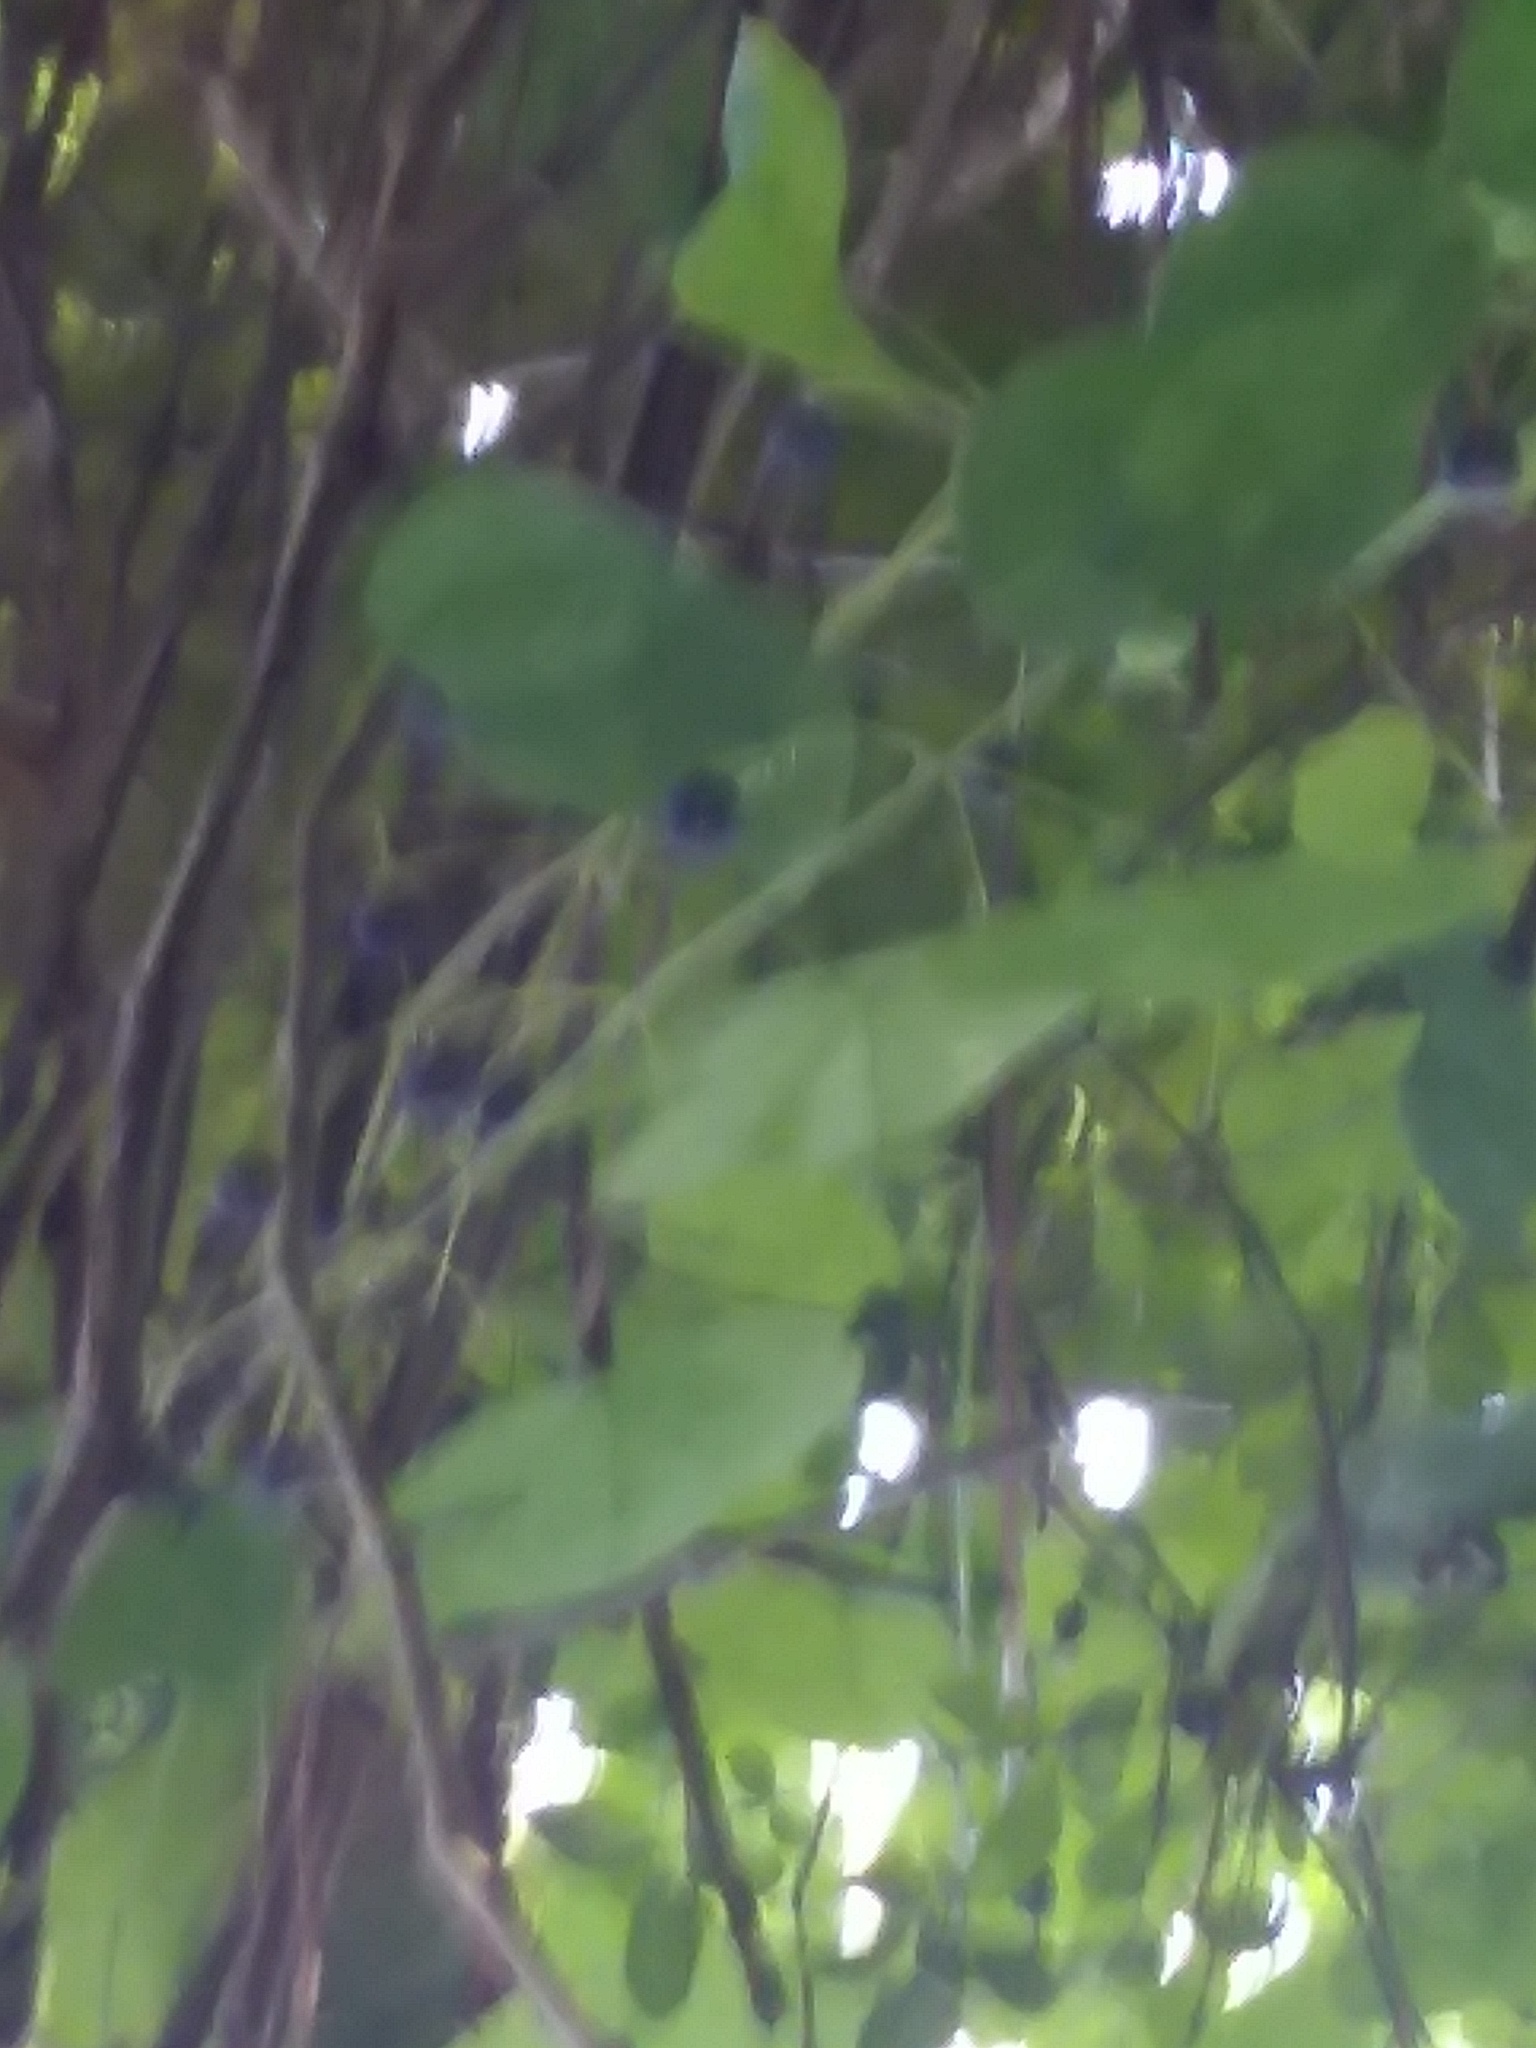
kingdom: Plantae
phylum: Tracheophyta
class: Magnoliopsida
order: Malpighiales
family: Passifloraceae
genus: Passiflora
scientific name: Passiflora lutea
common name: Yellow passionflower
